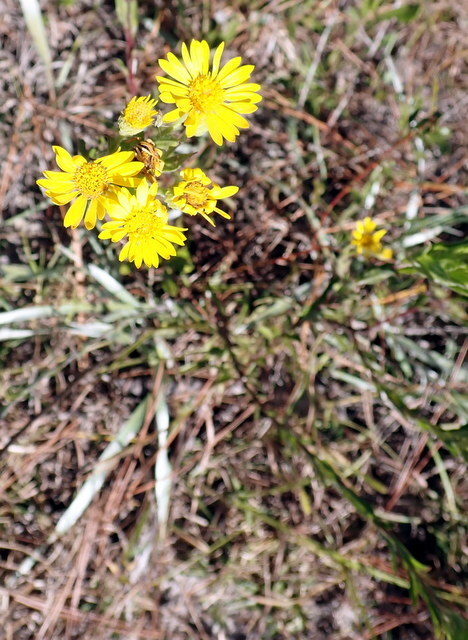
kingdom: Plantae
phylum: Tracheophyta
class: Magnoliopsida
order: Asterales
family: Asteraceae
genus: Chrysopsis
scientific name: Chrysopsis mariana
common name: Maryland golden-aster
